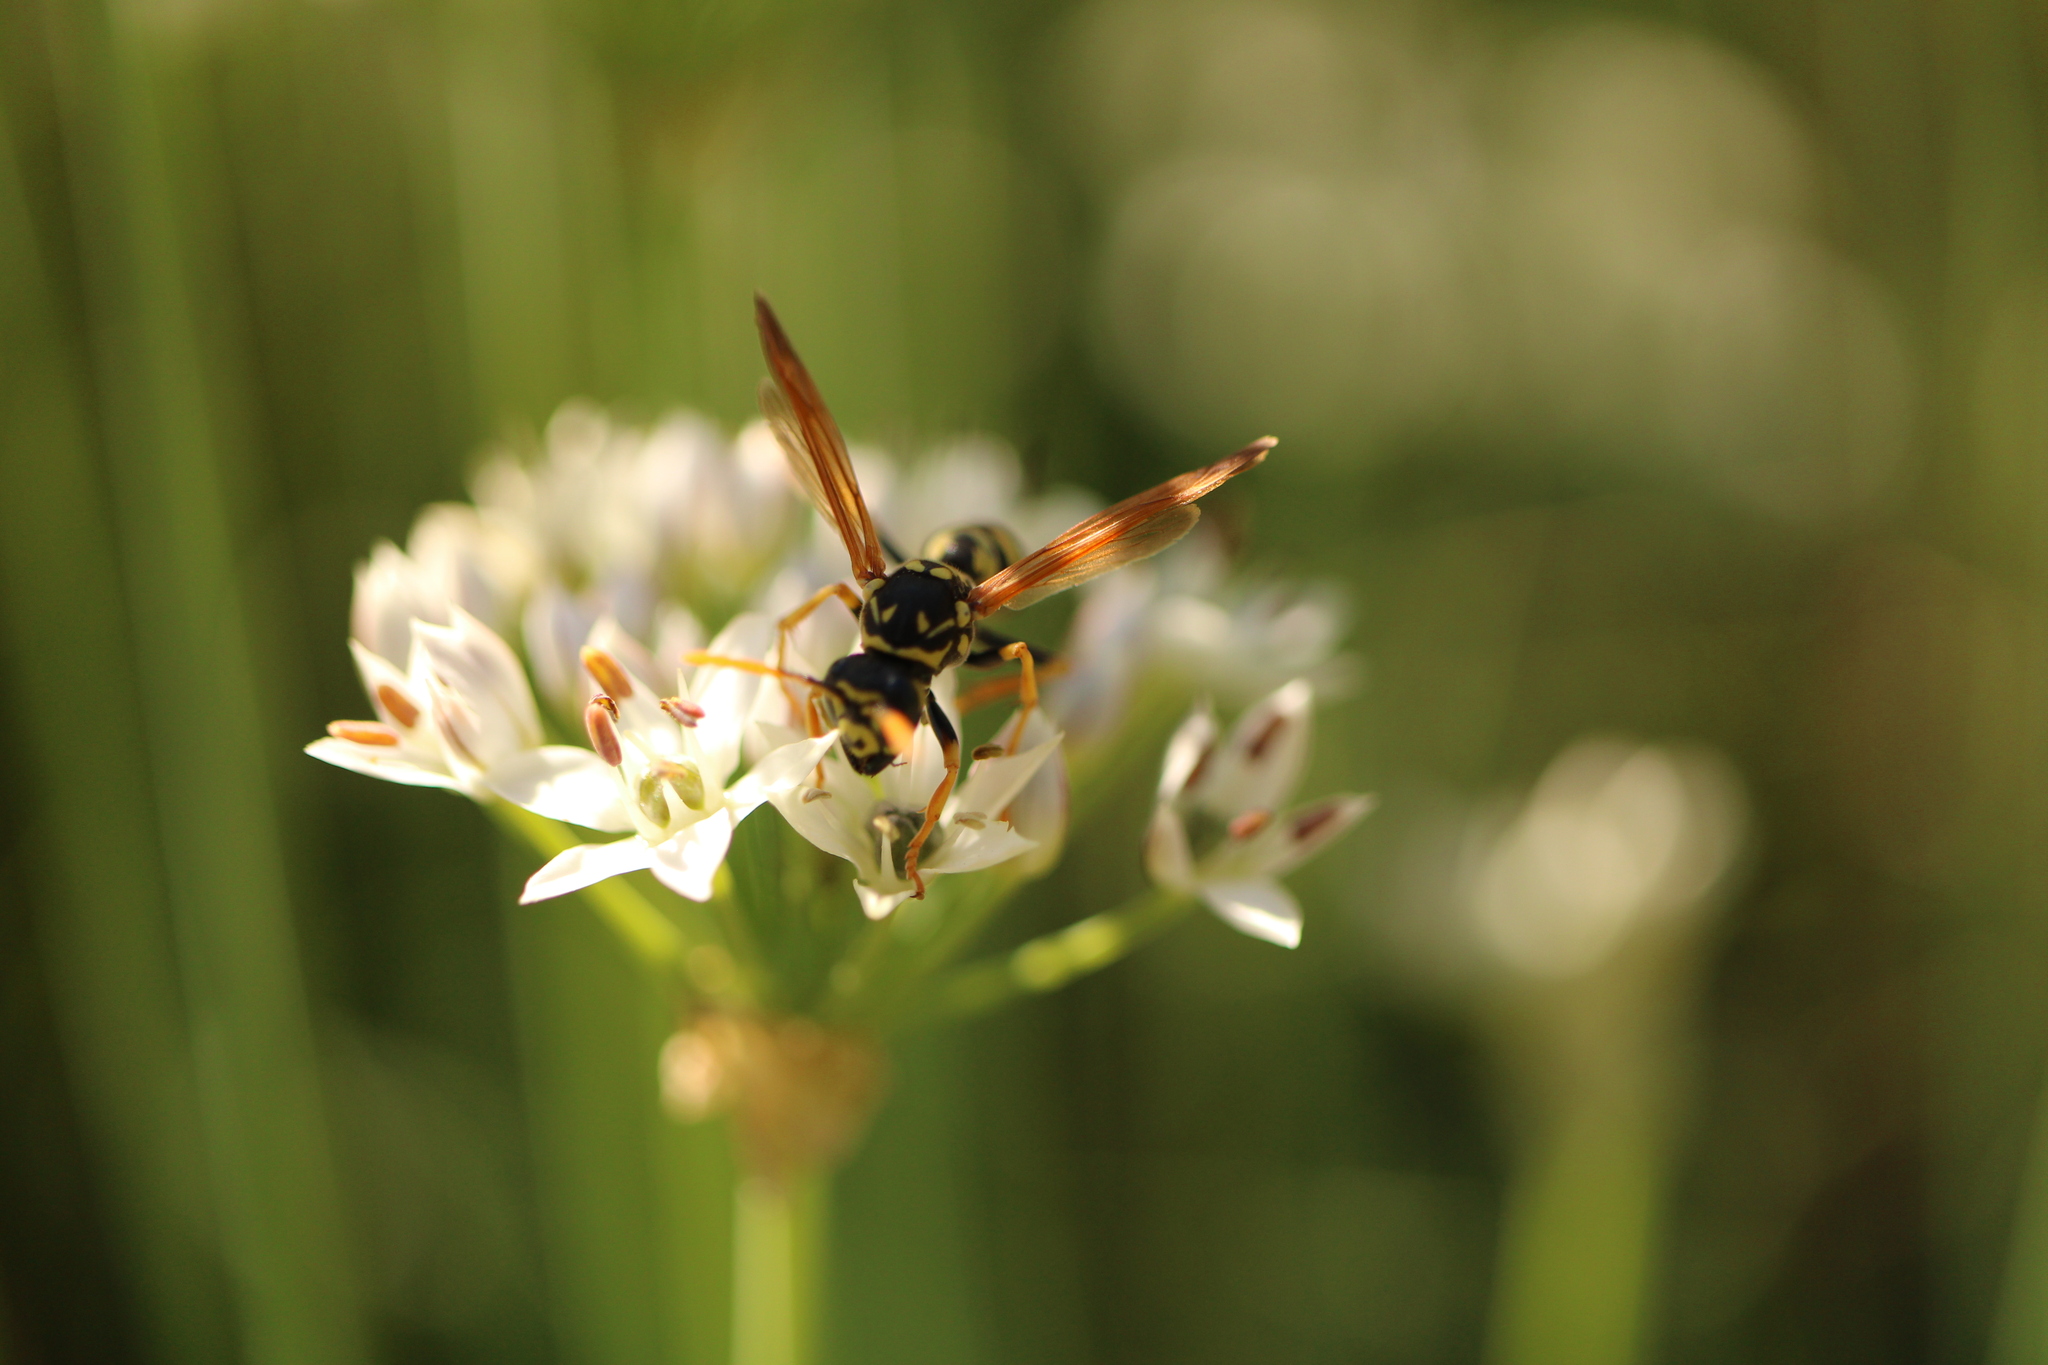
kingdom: Animalia
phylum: Arthropoda
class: Insecta
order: Hymenoptera
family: Eumenidae
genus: Polistes
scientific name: Polistes dominula
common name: Paper wasp
